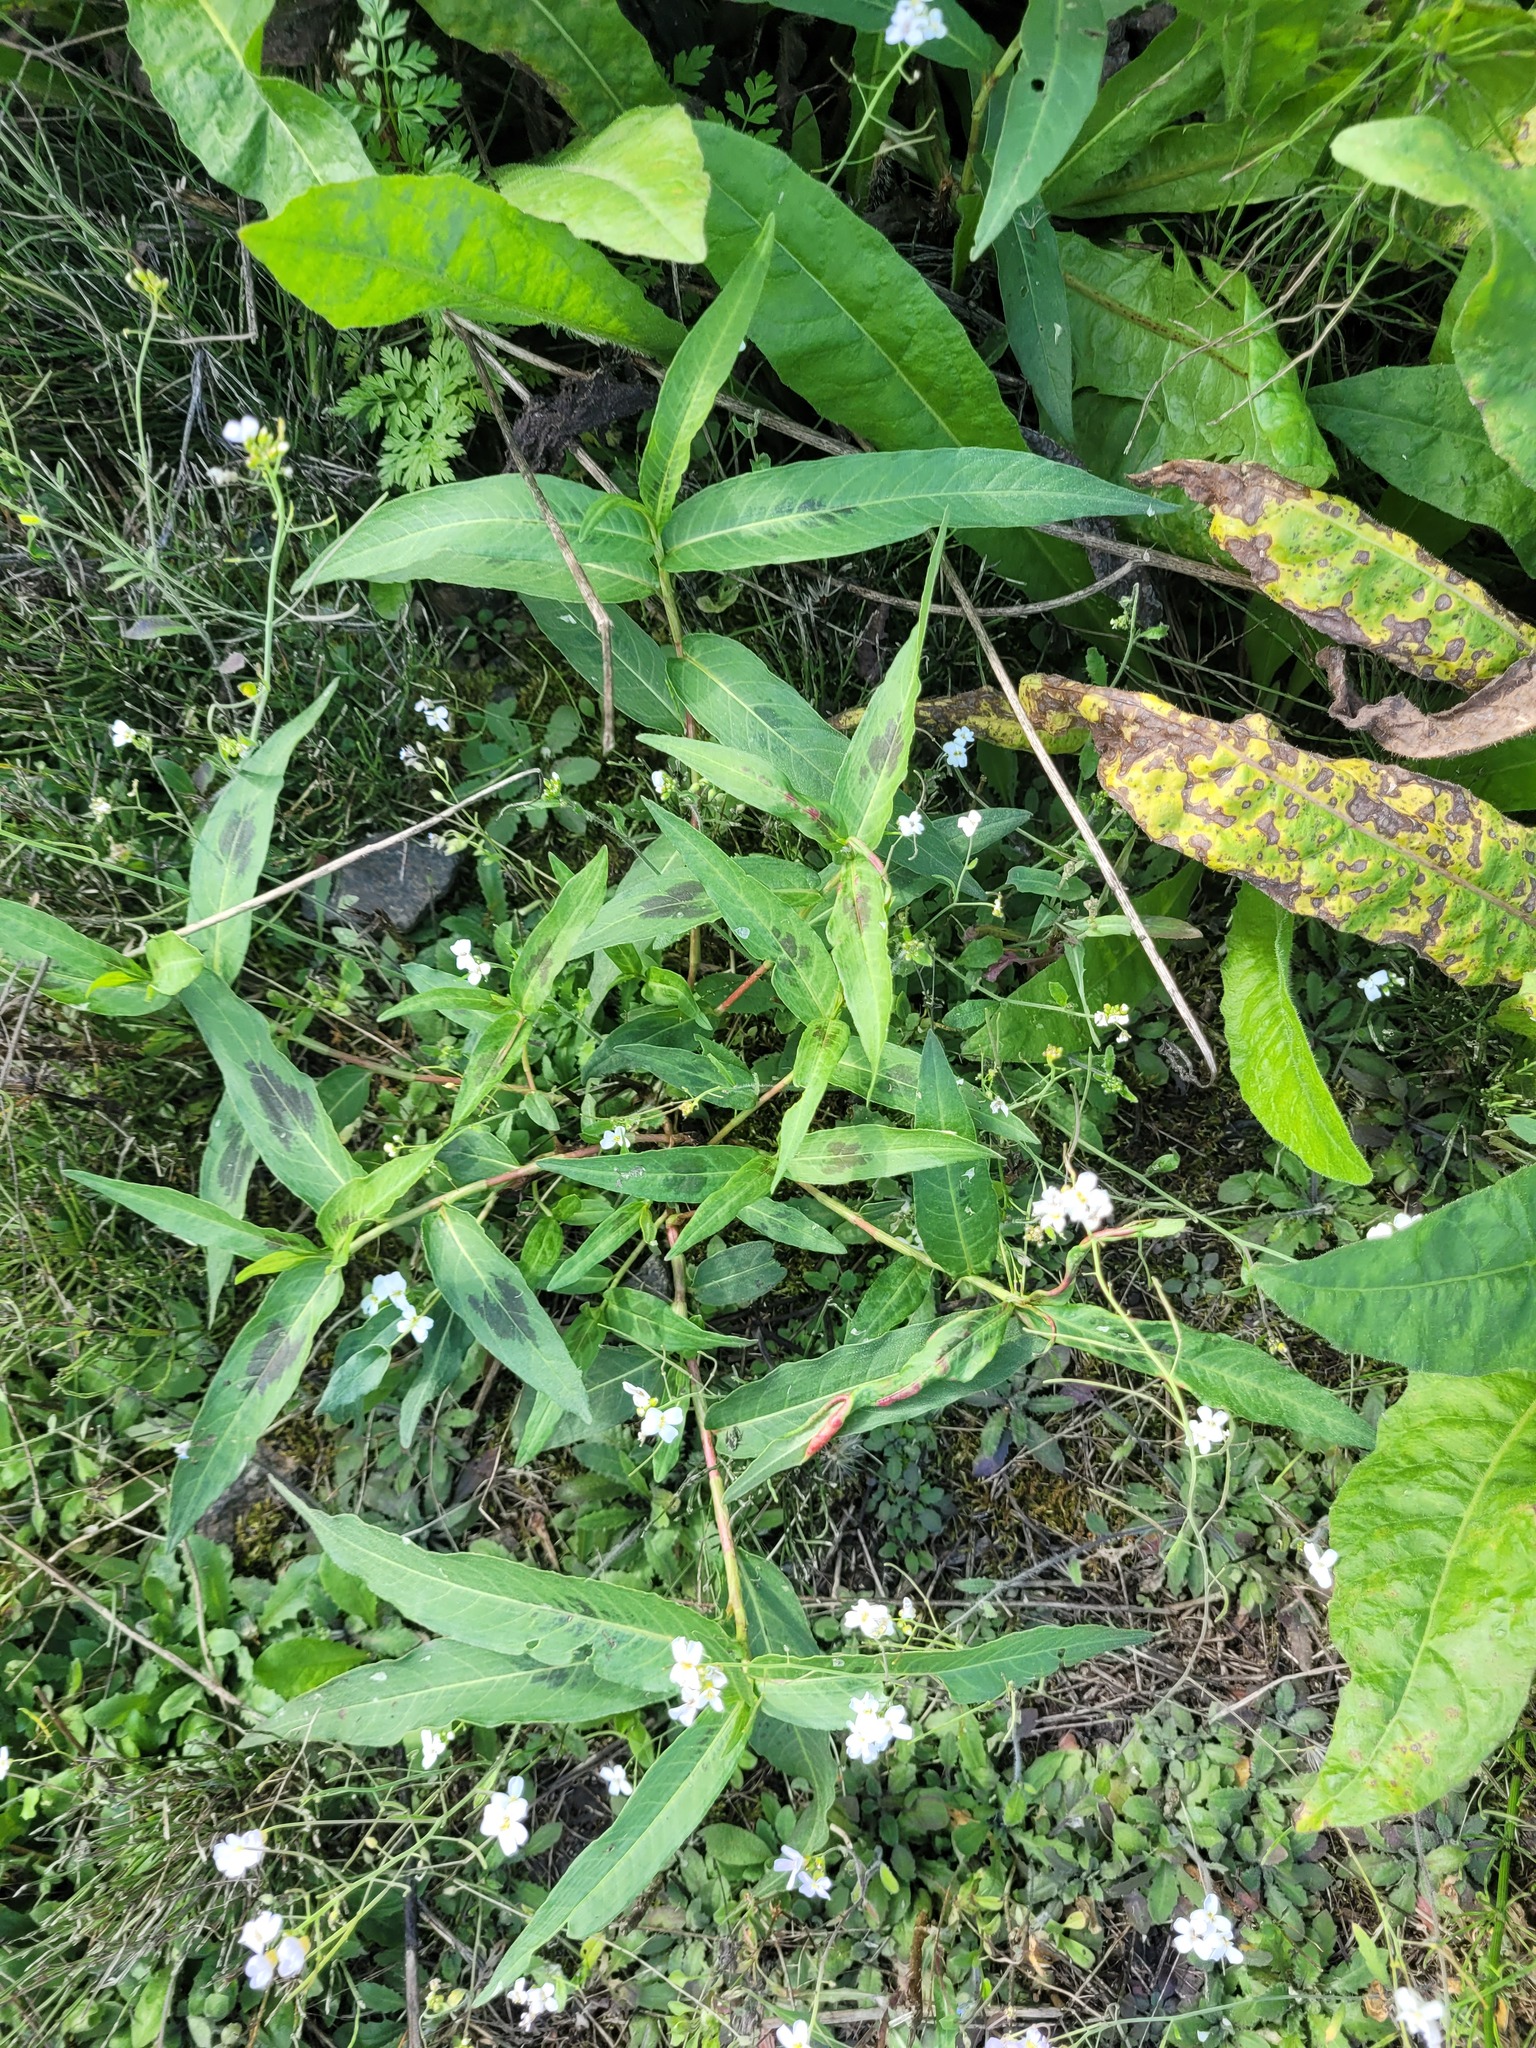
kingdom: Plantae
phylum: Tracheophyta
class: Magnoliopsida
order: Caryophyllales
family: Polygonaceae
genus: Persicaria
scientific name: Persicaria amphibia
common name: Amphibious bistort
